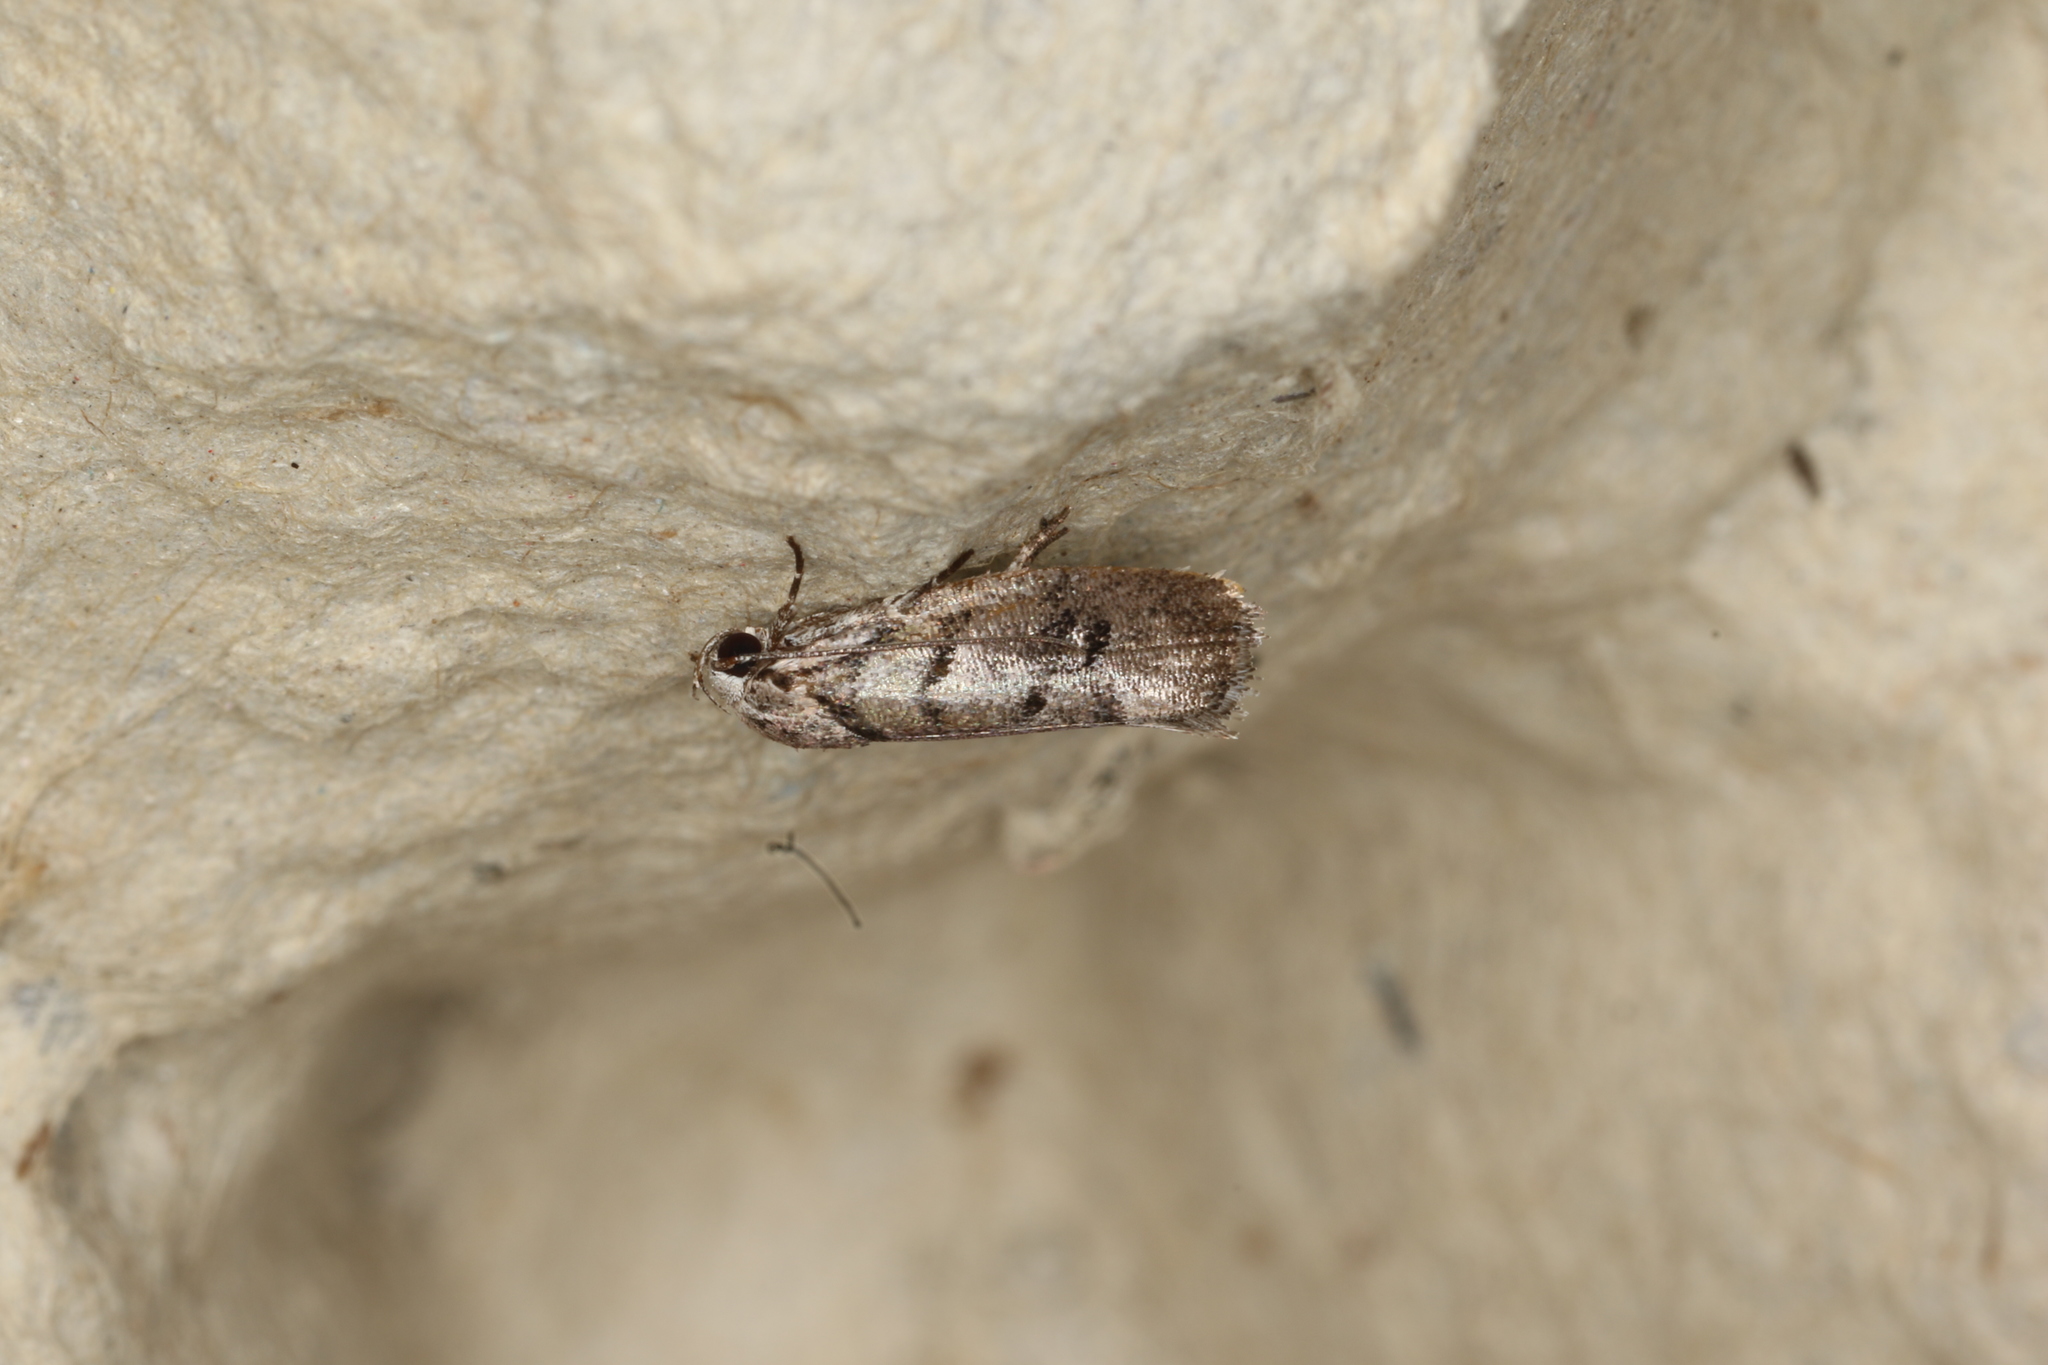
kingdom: Animalia
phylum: Arthropoda
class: Insecta
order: Lepidoptera
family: Xyloryctidae
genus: Lichenaula
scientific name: Lichenaula onychodes
